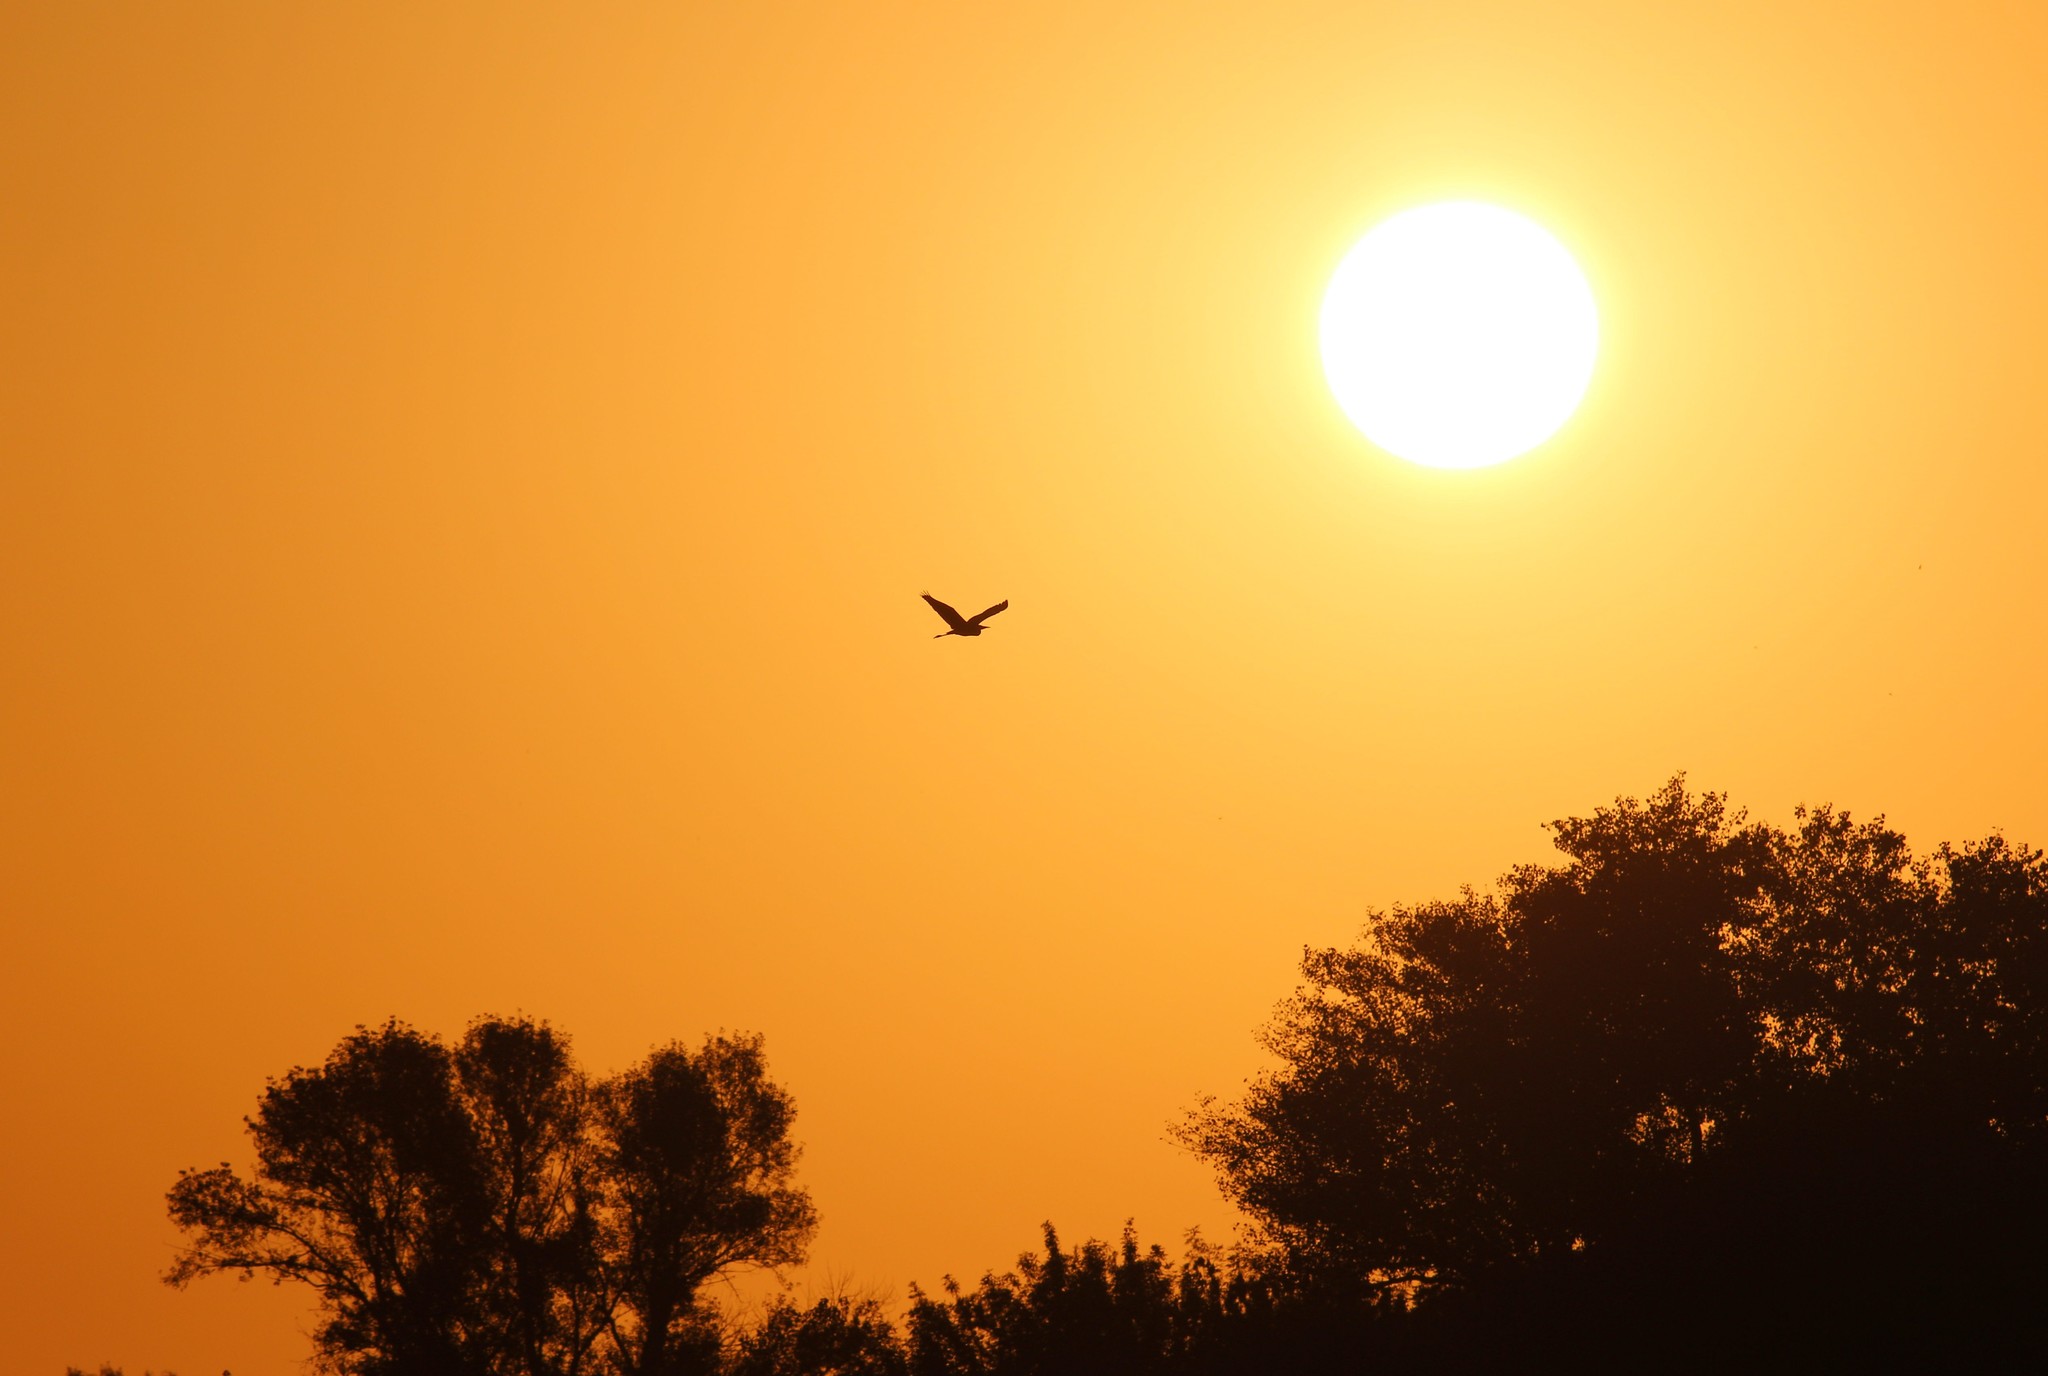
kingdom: Animalia
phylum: Chordata
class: Aves
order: Pelecaniformes
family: Ardeidae
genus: Ardea
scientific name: Ardea cinerea
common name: Grey heron
